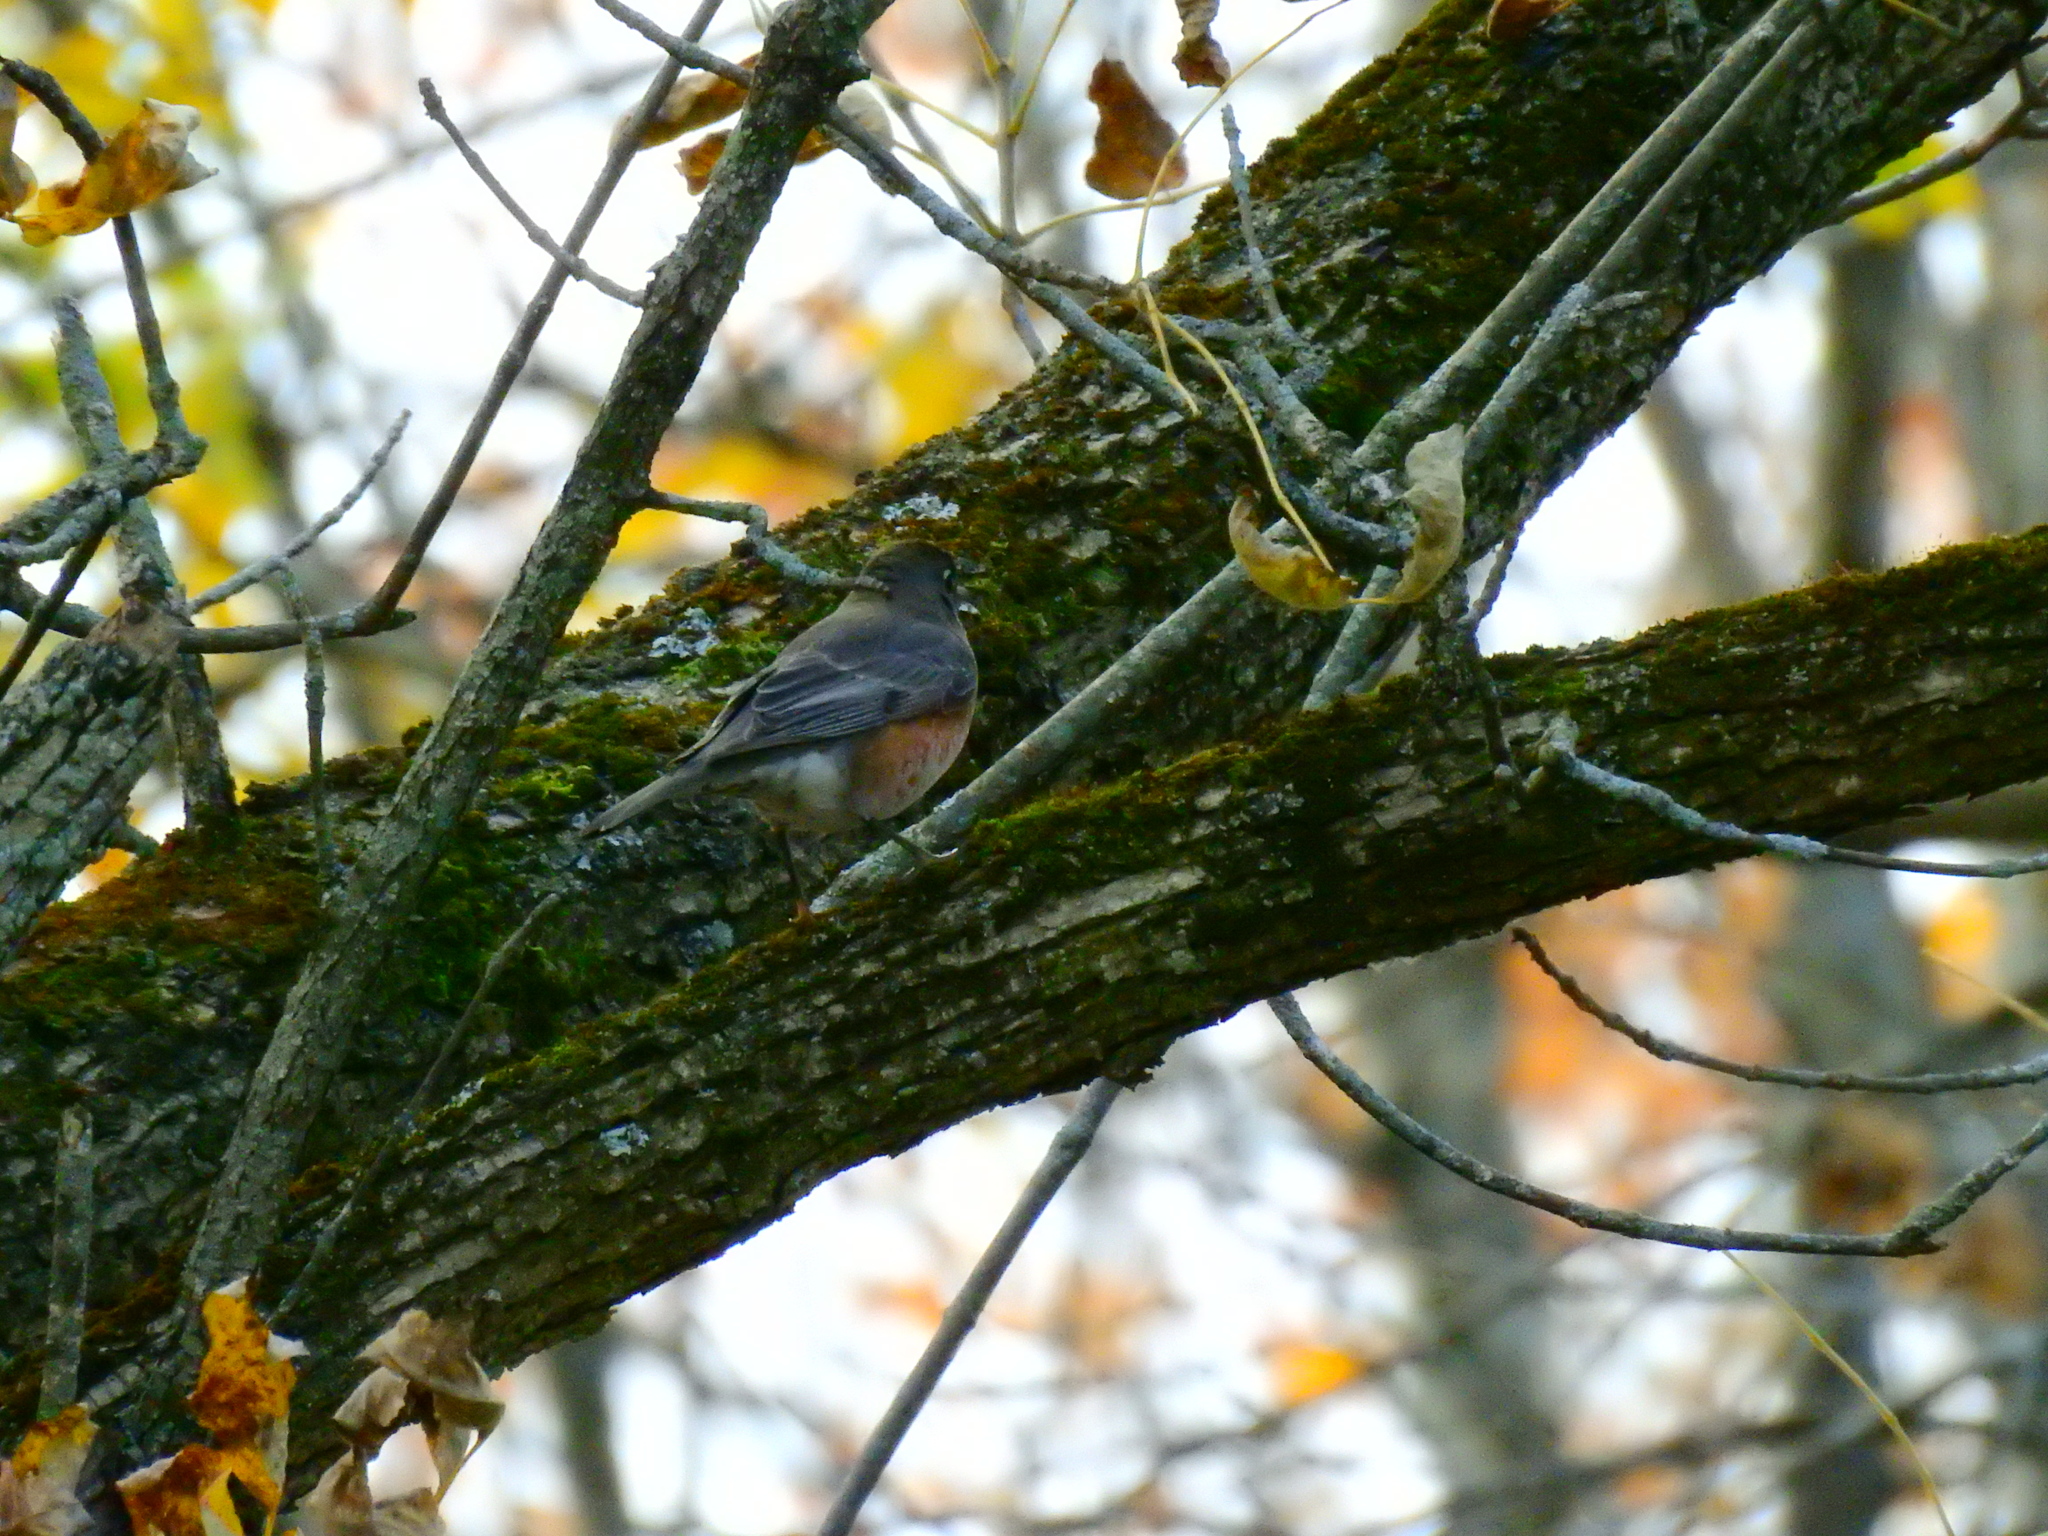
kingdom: Animalia
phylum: Chordata
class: Aves
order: Passeriformes
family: Turdidae
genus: Turdus
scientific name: Turdus migratorius
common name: American robin
